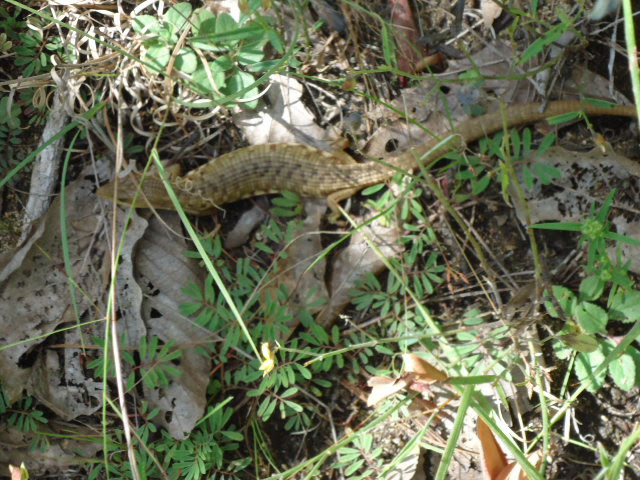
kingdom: Animalia
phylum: Chordata
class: Squamata
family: Anguidae
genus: Gerrhonotus
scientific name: Gerrhonotus liocephalus
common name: Texas alligator lizard
